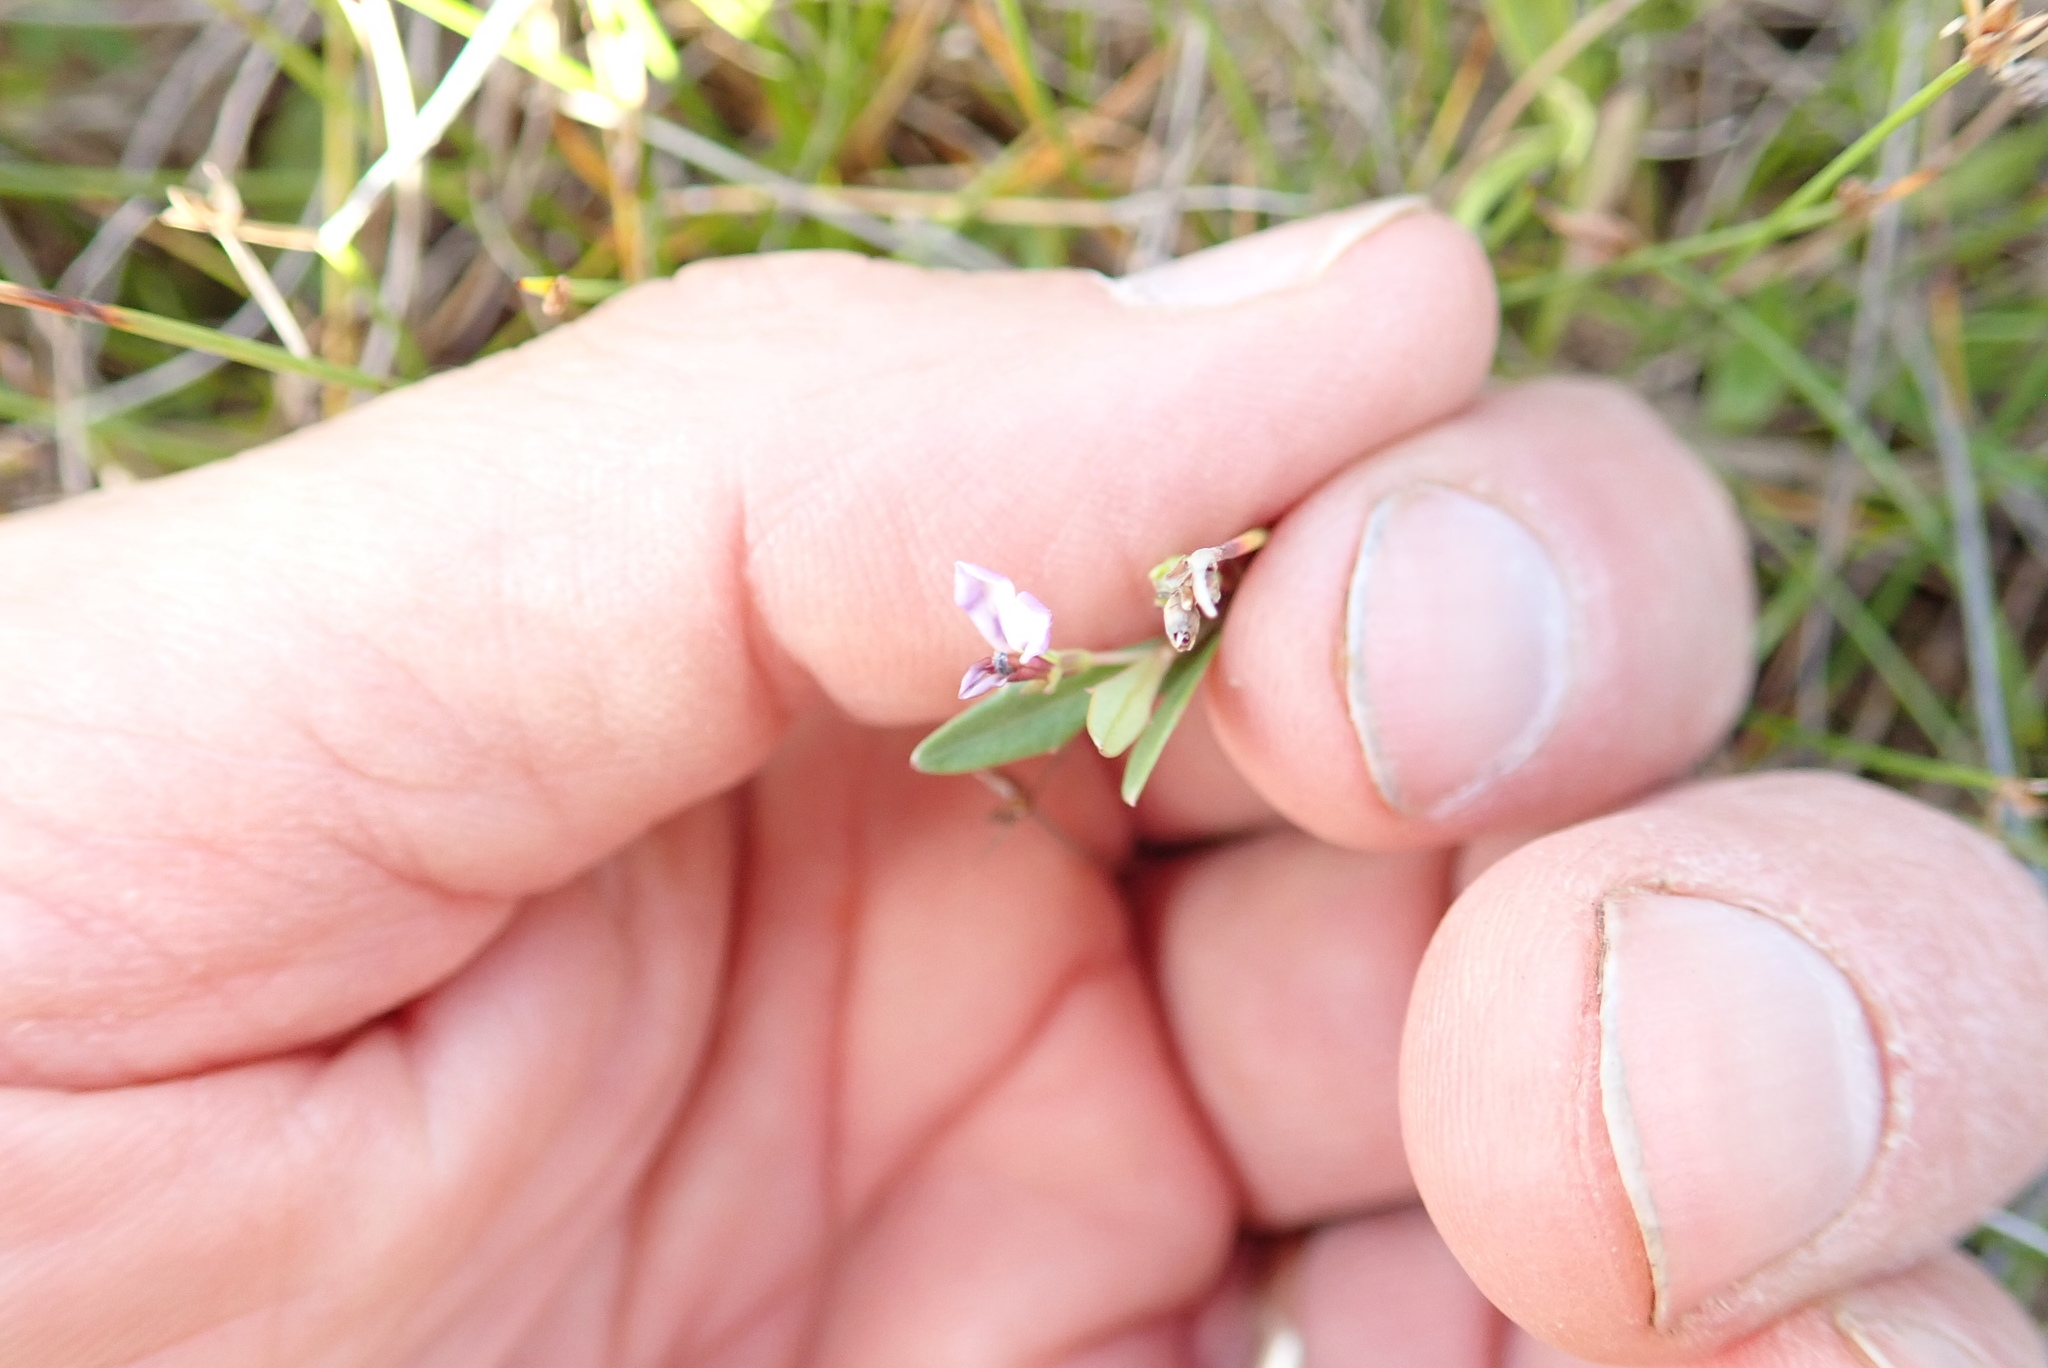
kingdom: Plantae
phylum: Tracheophyta
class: Magnoliopsida
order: Asterales
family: Campanulaceae
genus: Lobelia
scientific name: Lobelia anceps
